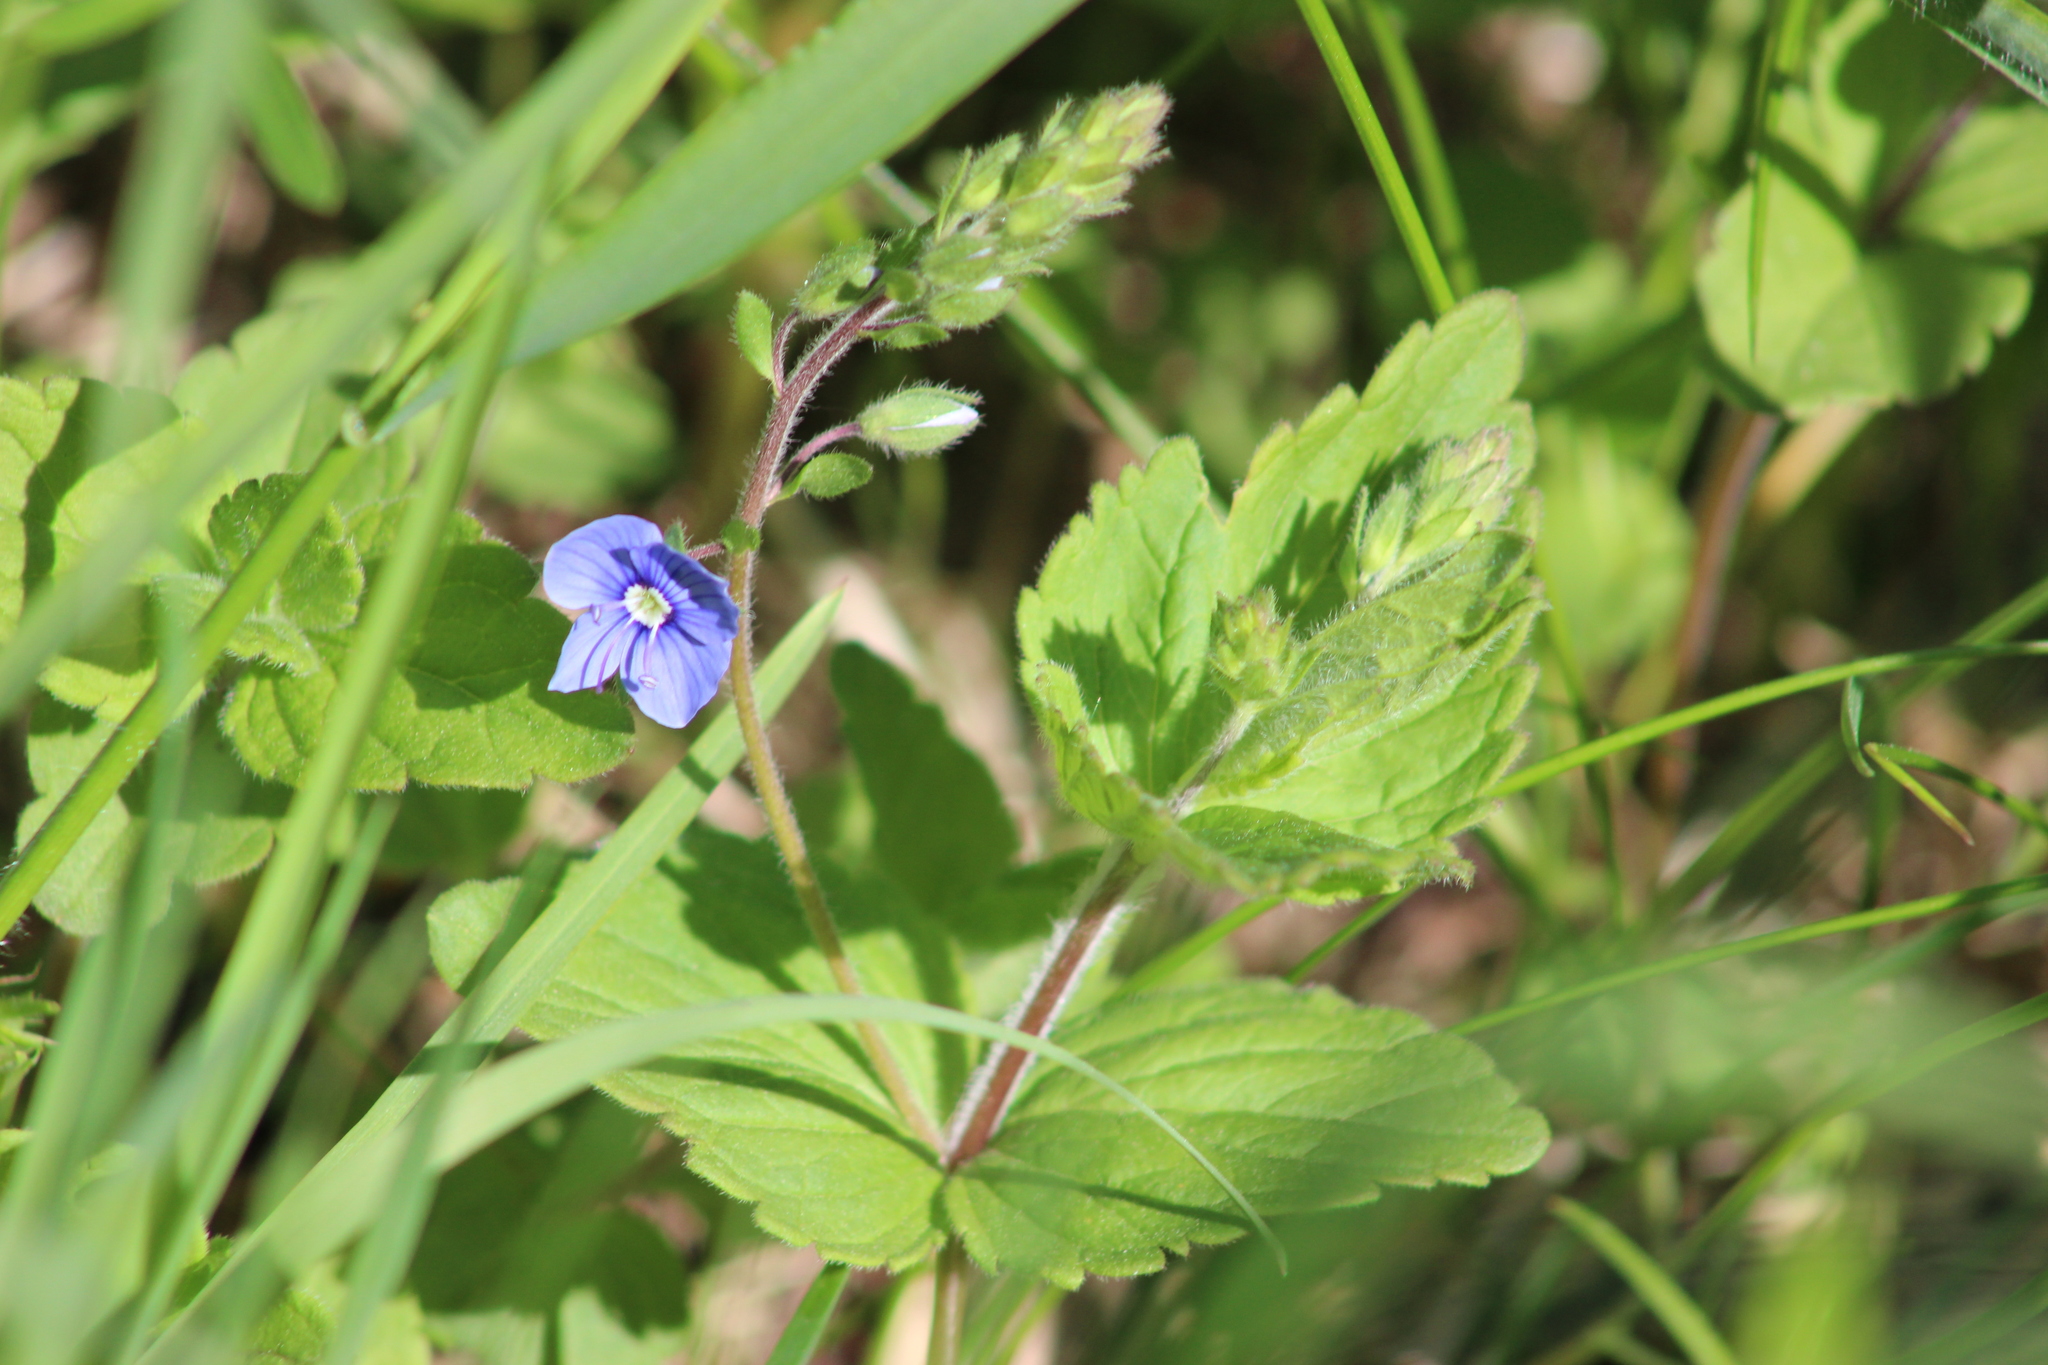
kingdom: Plantae
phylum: Tracheophyta
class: Magnoliopsida
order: Lamiales
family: Plantaginaceae
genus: Veronica
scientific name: Veronica chamaedrys
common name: Germander speedwell
